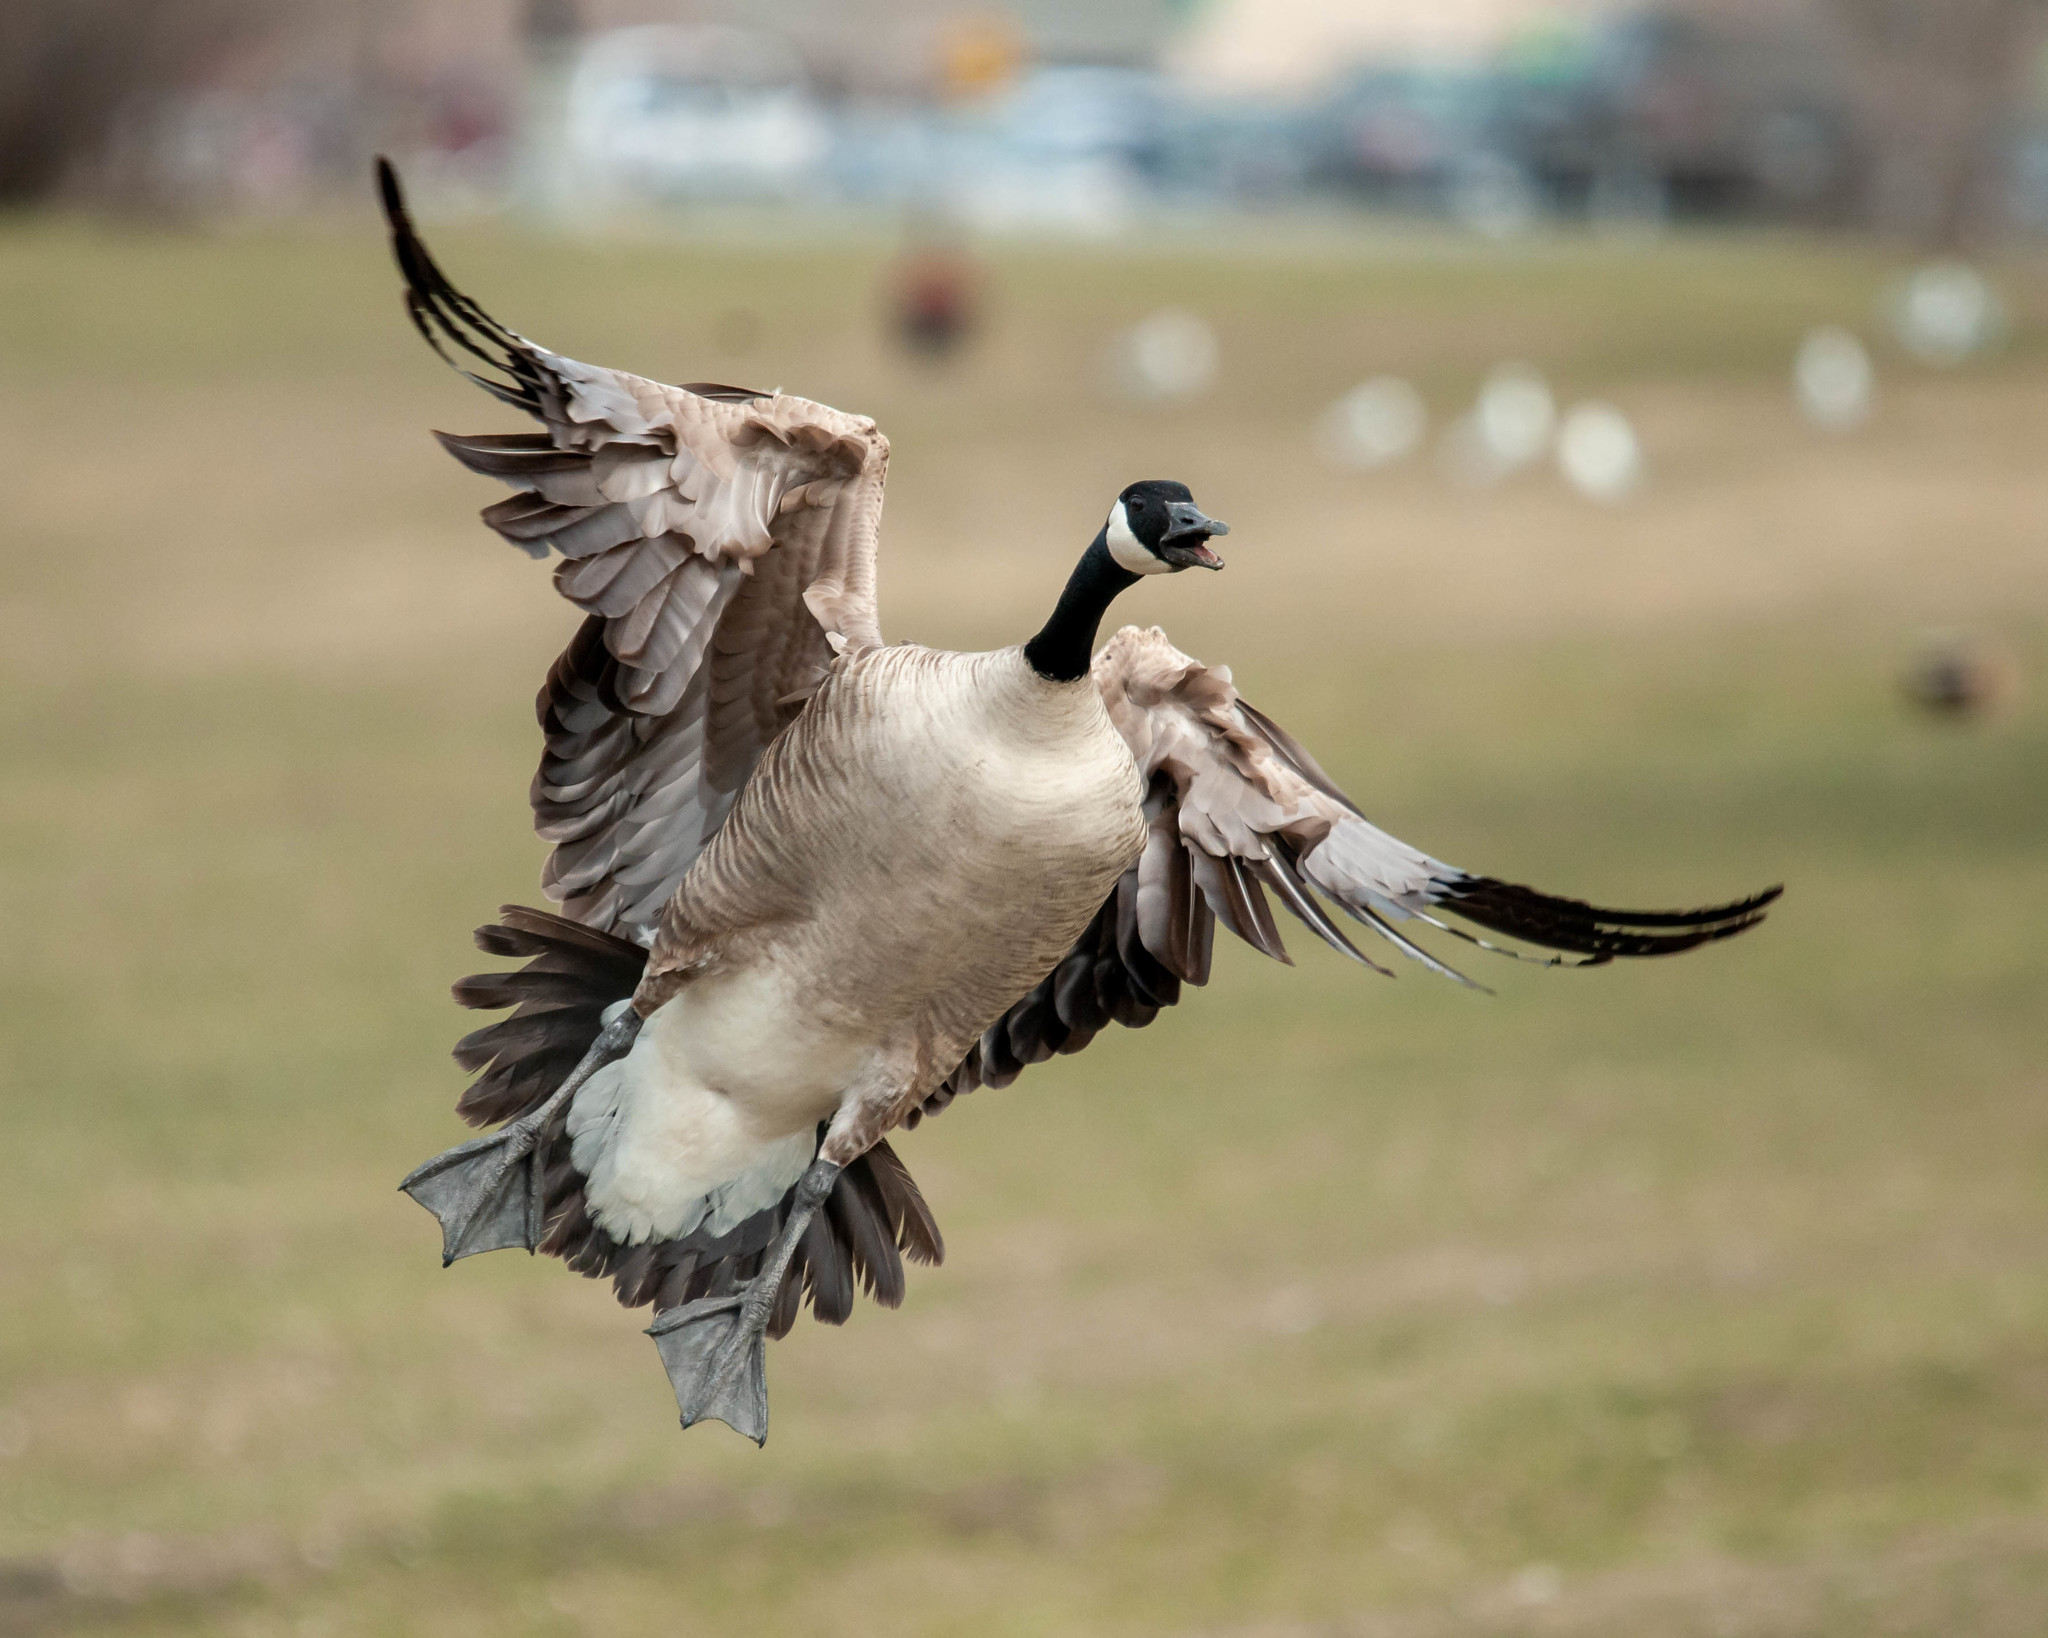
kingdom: Animalia
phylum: Chordata
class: Aves
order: Anseriformes
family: Anatidae
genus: Branta
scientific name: Branta canadensis
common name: Canada goose
